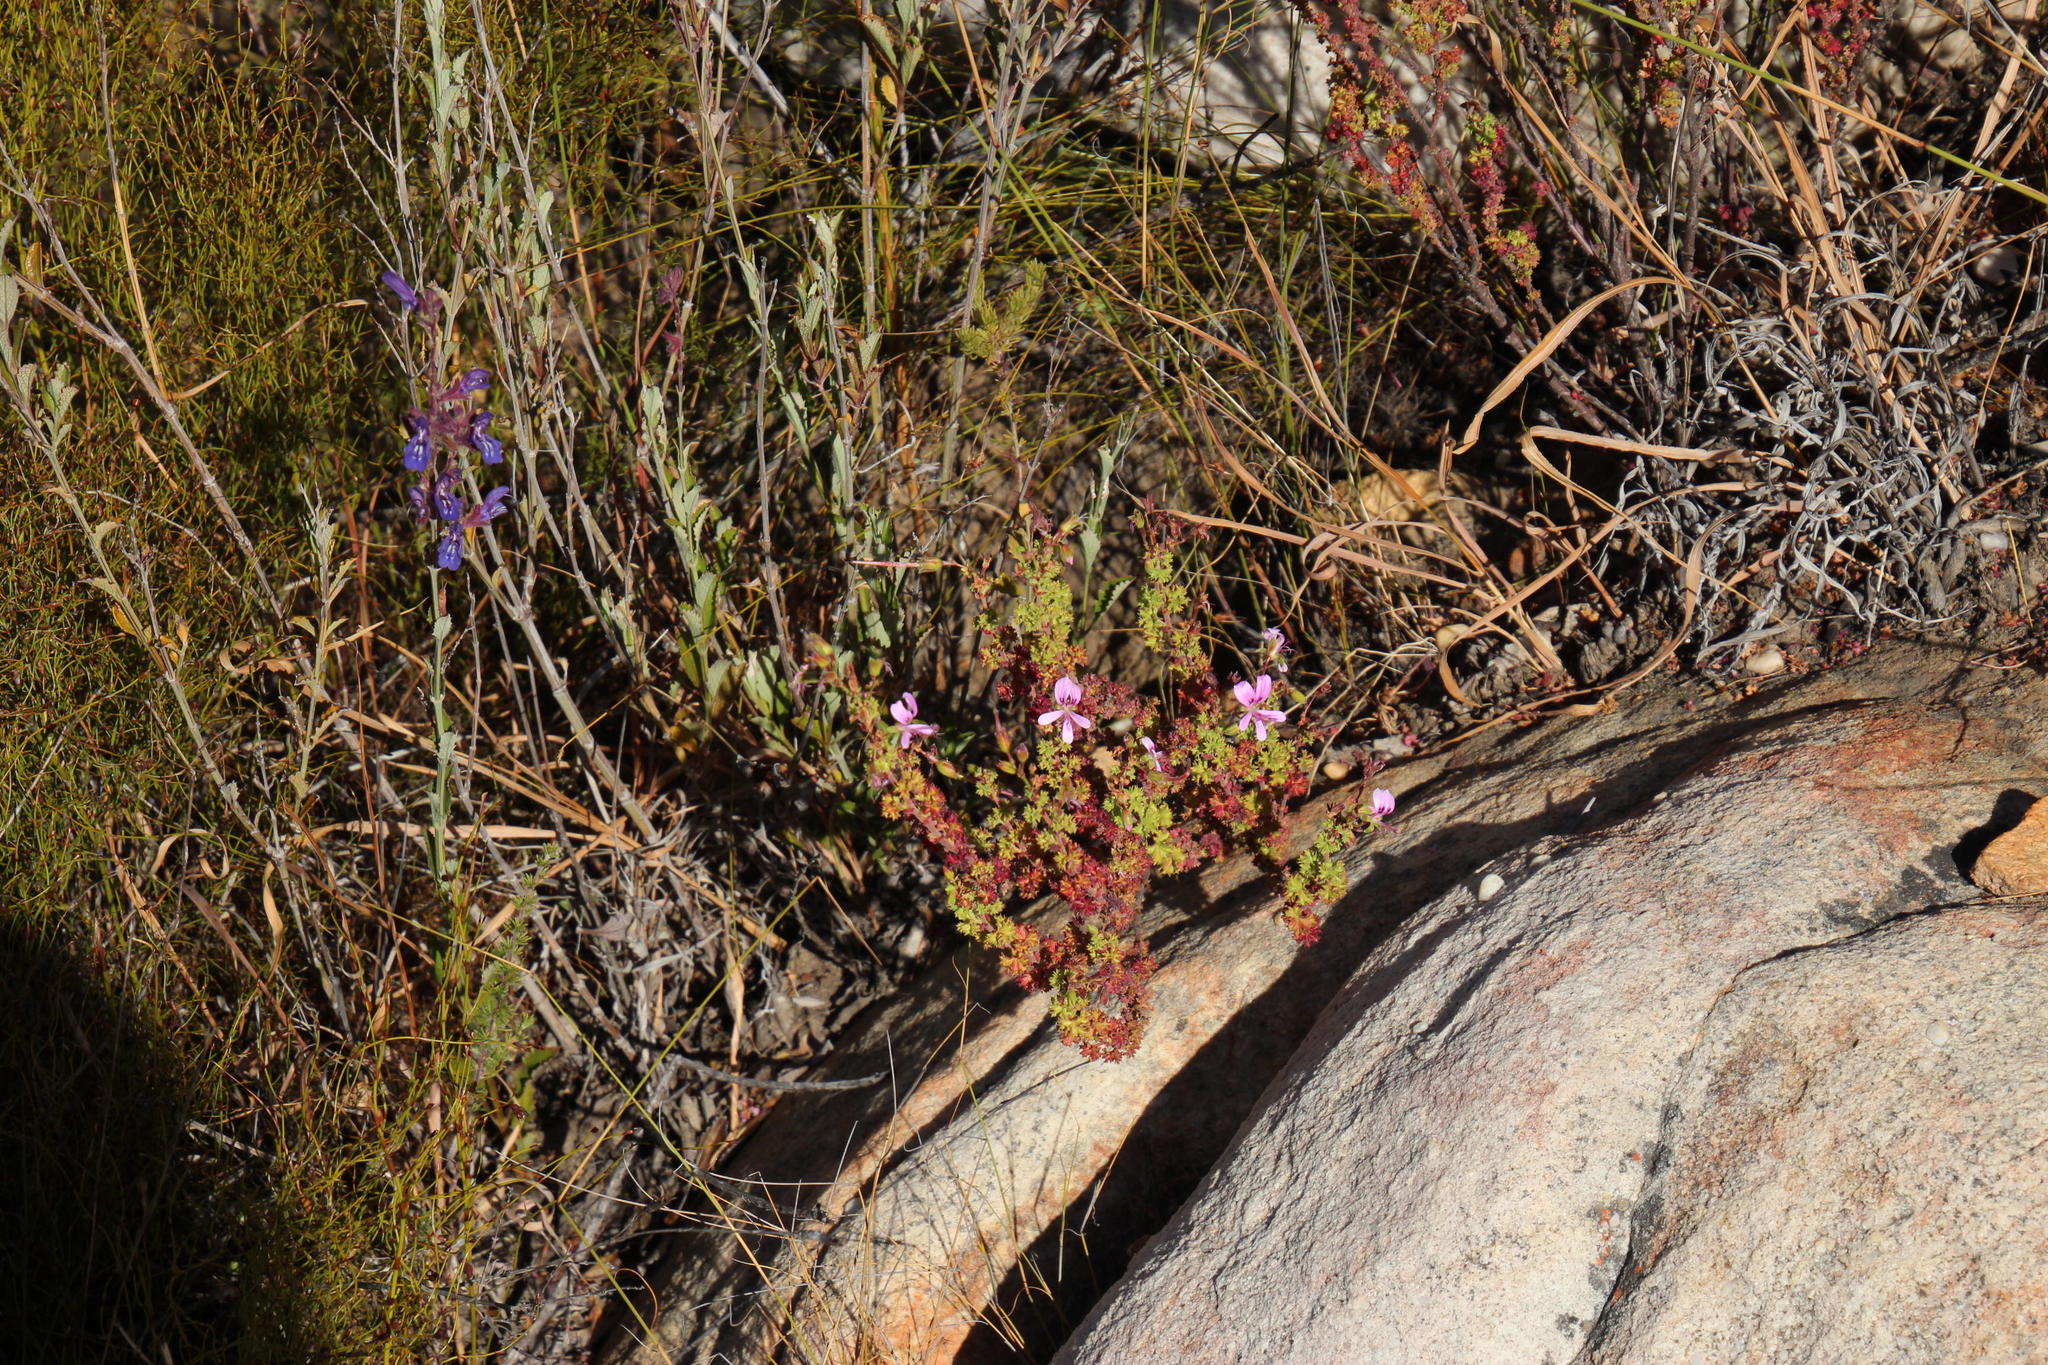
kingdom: Plantae
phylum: Tracheophyta
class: Magnoliopsida
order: Geraniales
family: Geraniaceae
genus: Pelargonium
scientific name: Pelargonium englerianum
